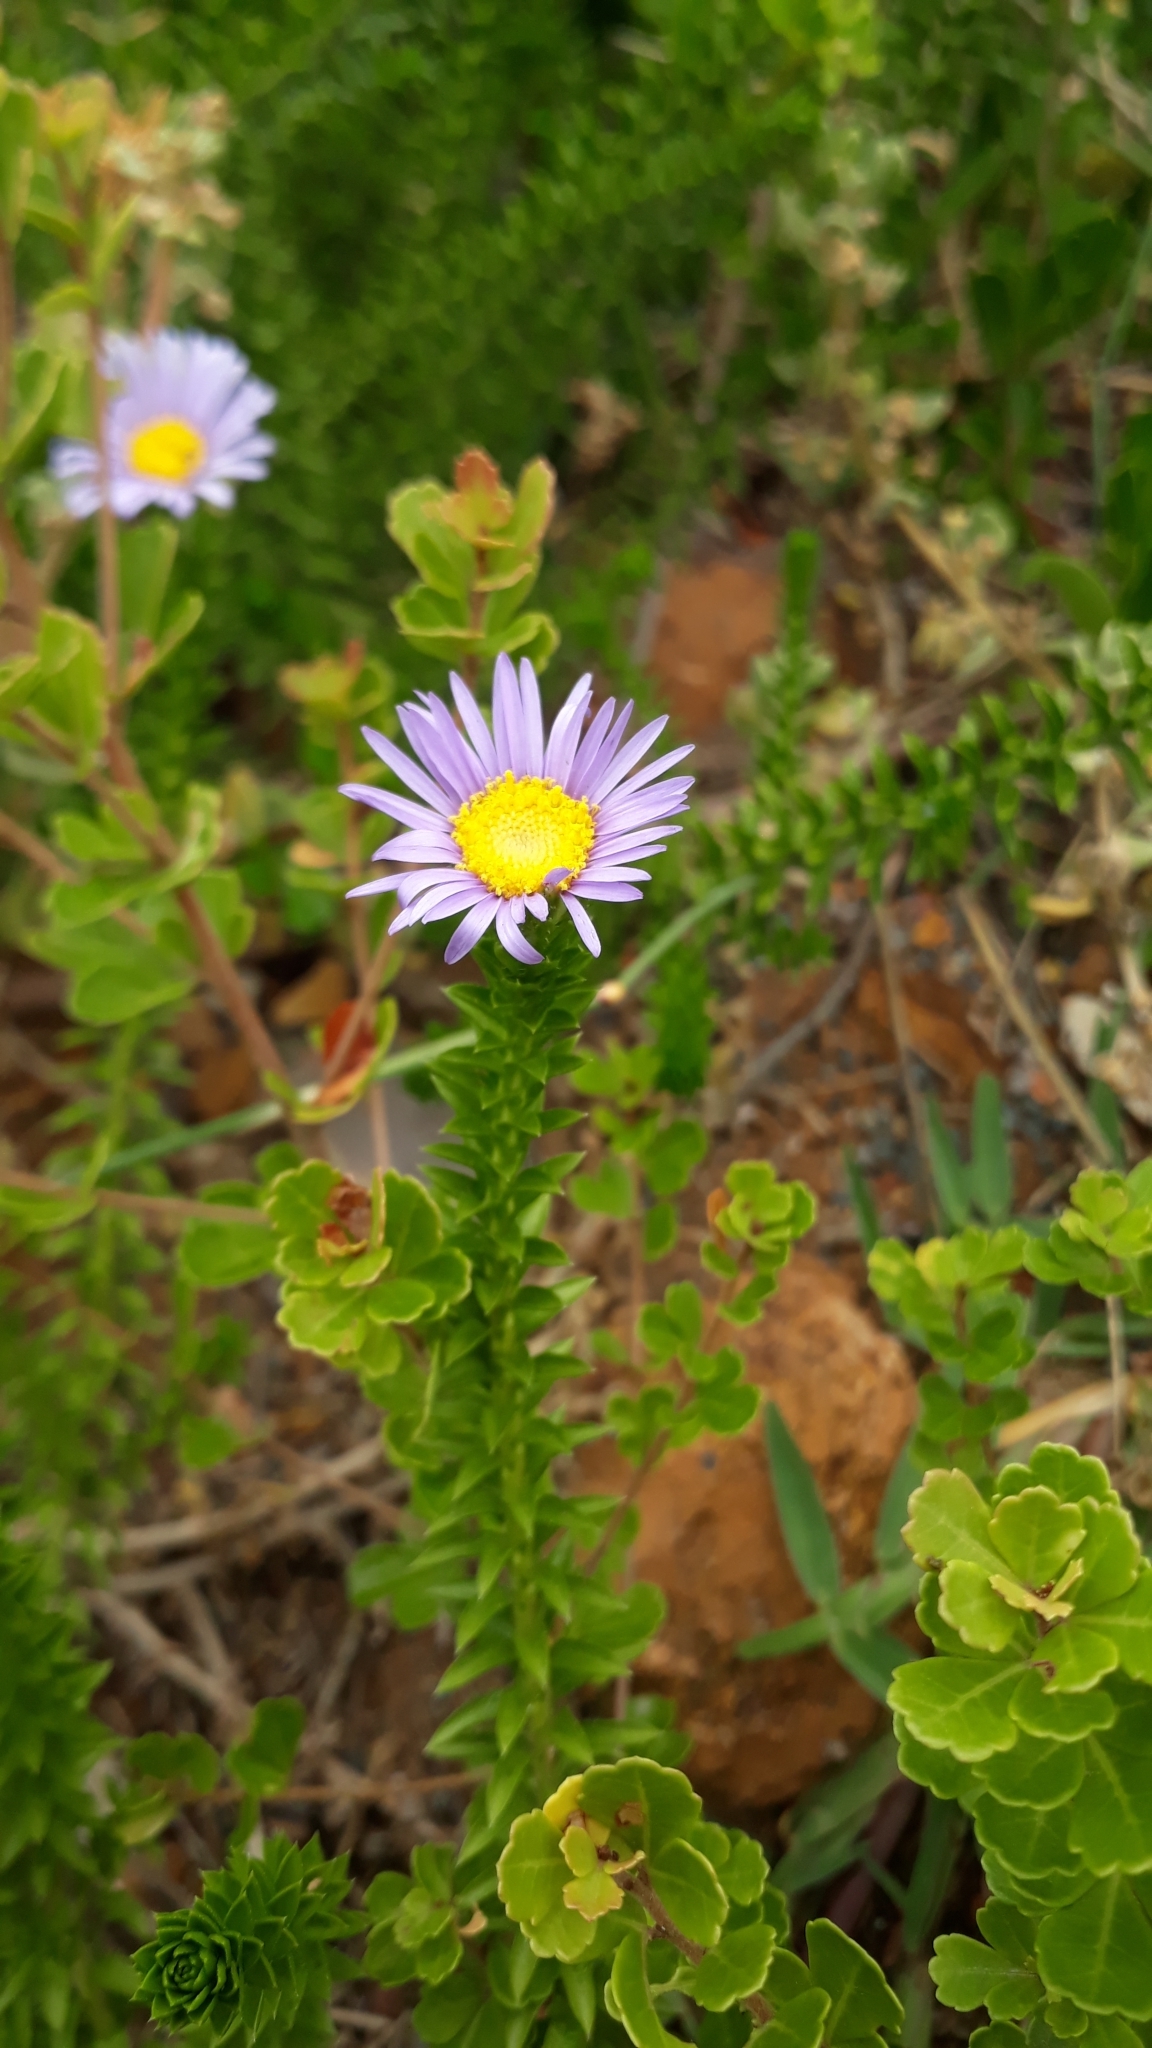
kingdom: Plantae
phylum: Tracheophyta
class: Magnoliopsida
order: Asterales
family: Asteraceae
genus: Felicia
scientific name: Felicia echinata
